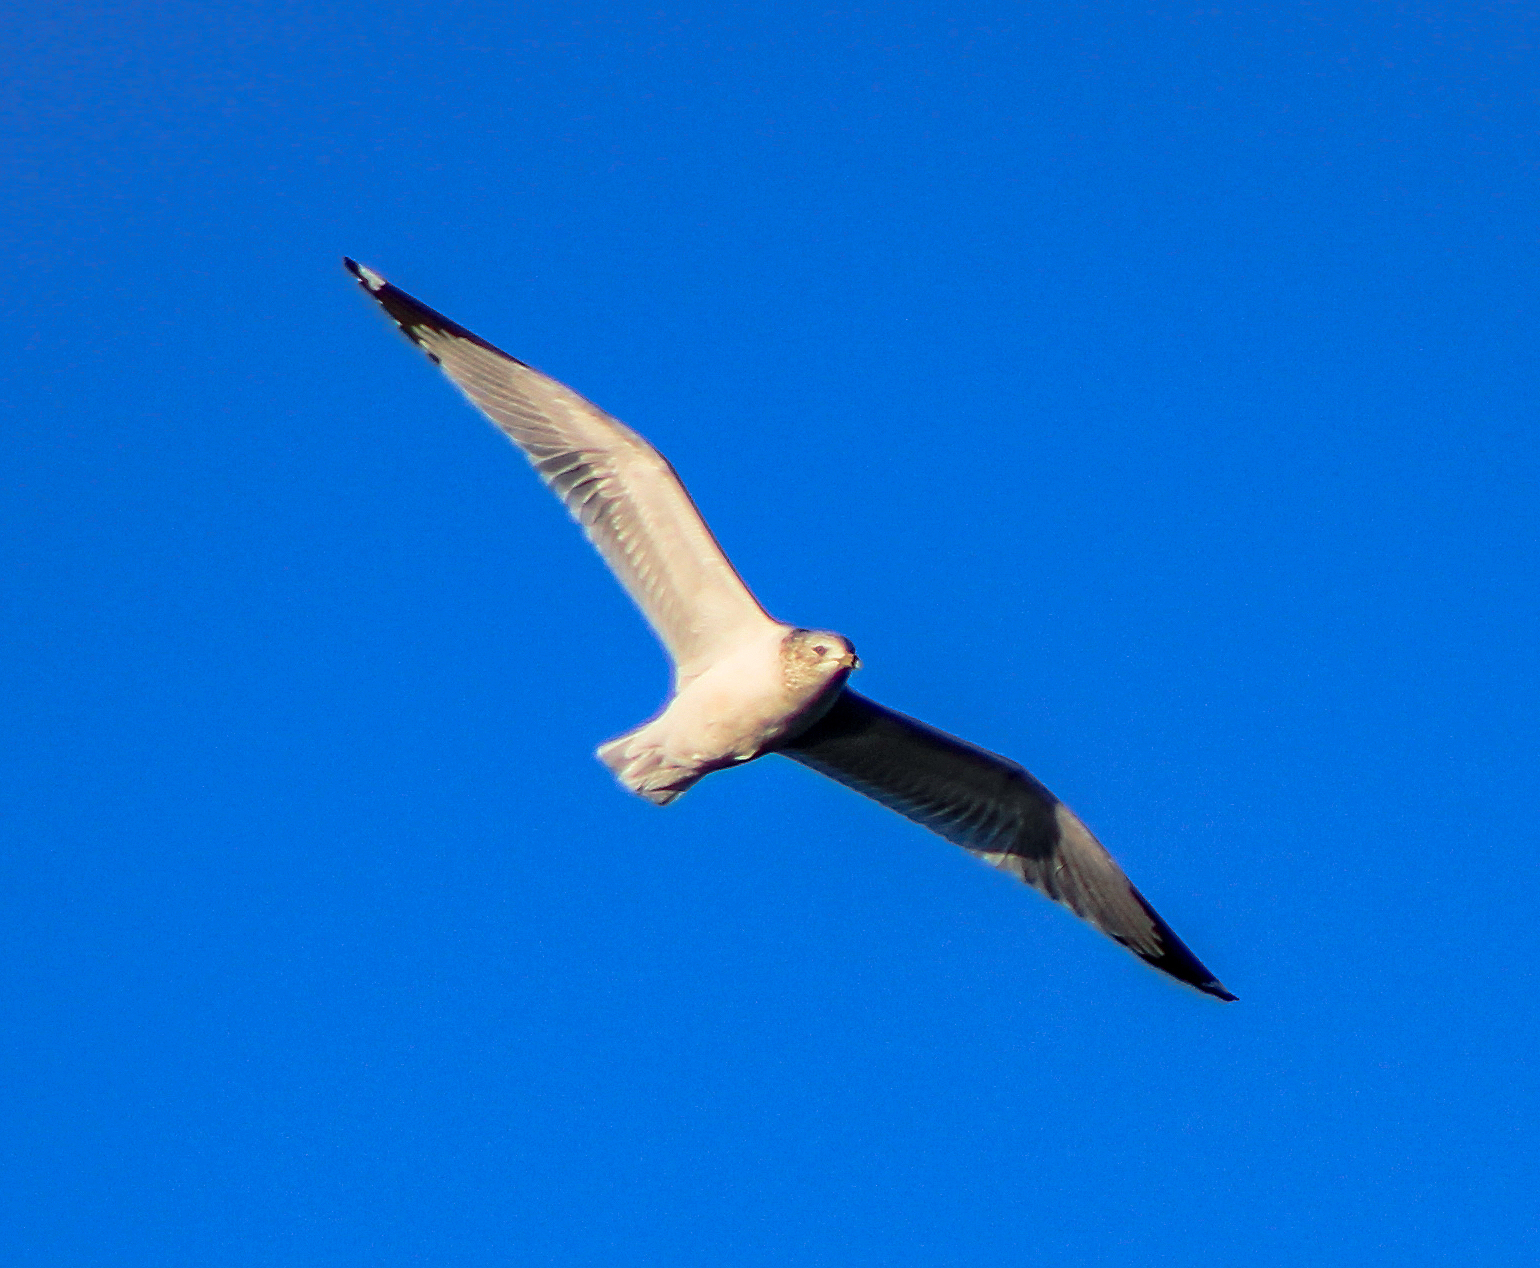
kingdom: Animalia
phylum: Chordata
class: Aves
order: Charadriiformes
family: Laridae
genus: Larus
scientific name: Larus delawarensis
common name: Ring-billed gull
